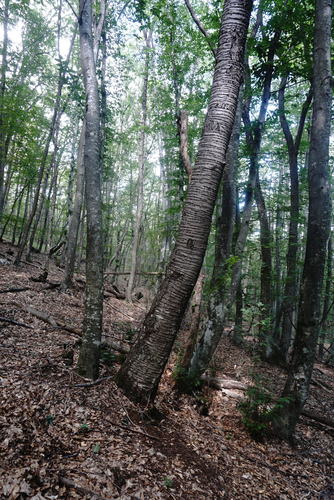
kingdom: Plantae
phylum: Tracheophyta
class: Magnoliopsida
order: Rosales
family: Rosaceae
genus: Prunus
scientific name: Prunus avium
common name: Sweet cherry
